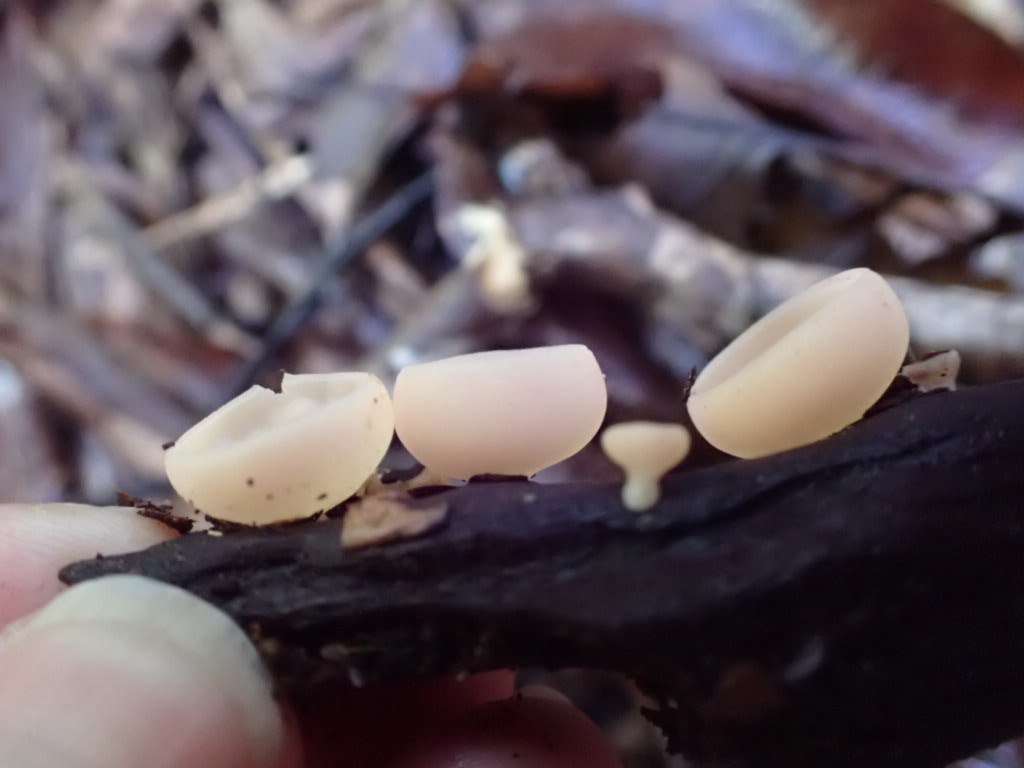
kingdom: Fungi
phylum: Ascomycota
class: Pezizomycetes
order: Pezizales
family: Sarcoscyphaceae
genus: Cookeina
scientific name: Cookeina colensoi
